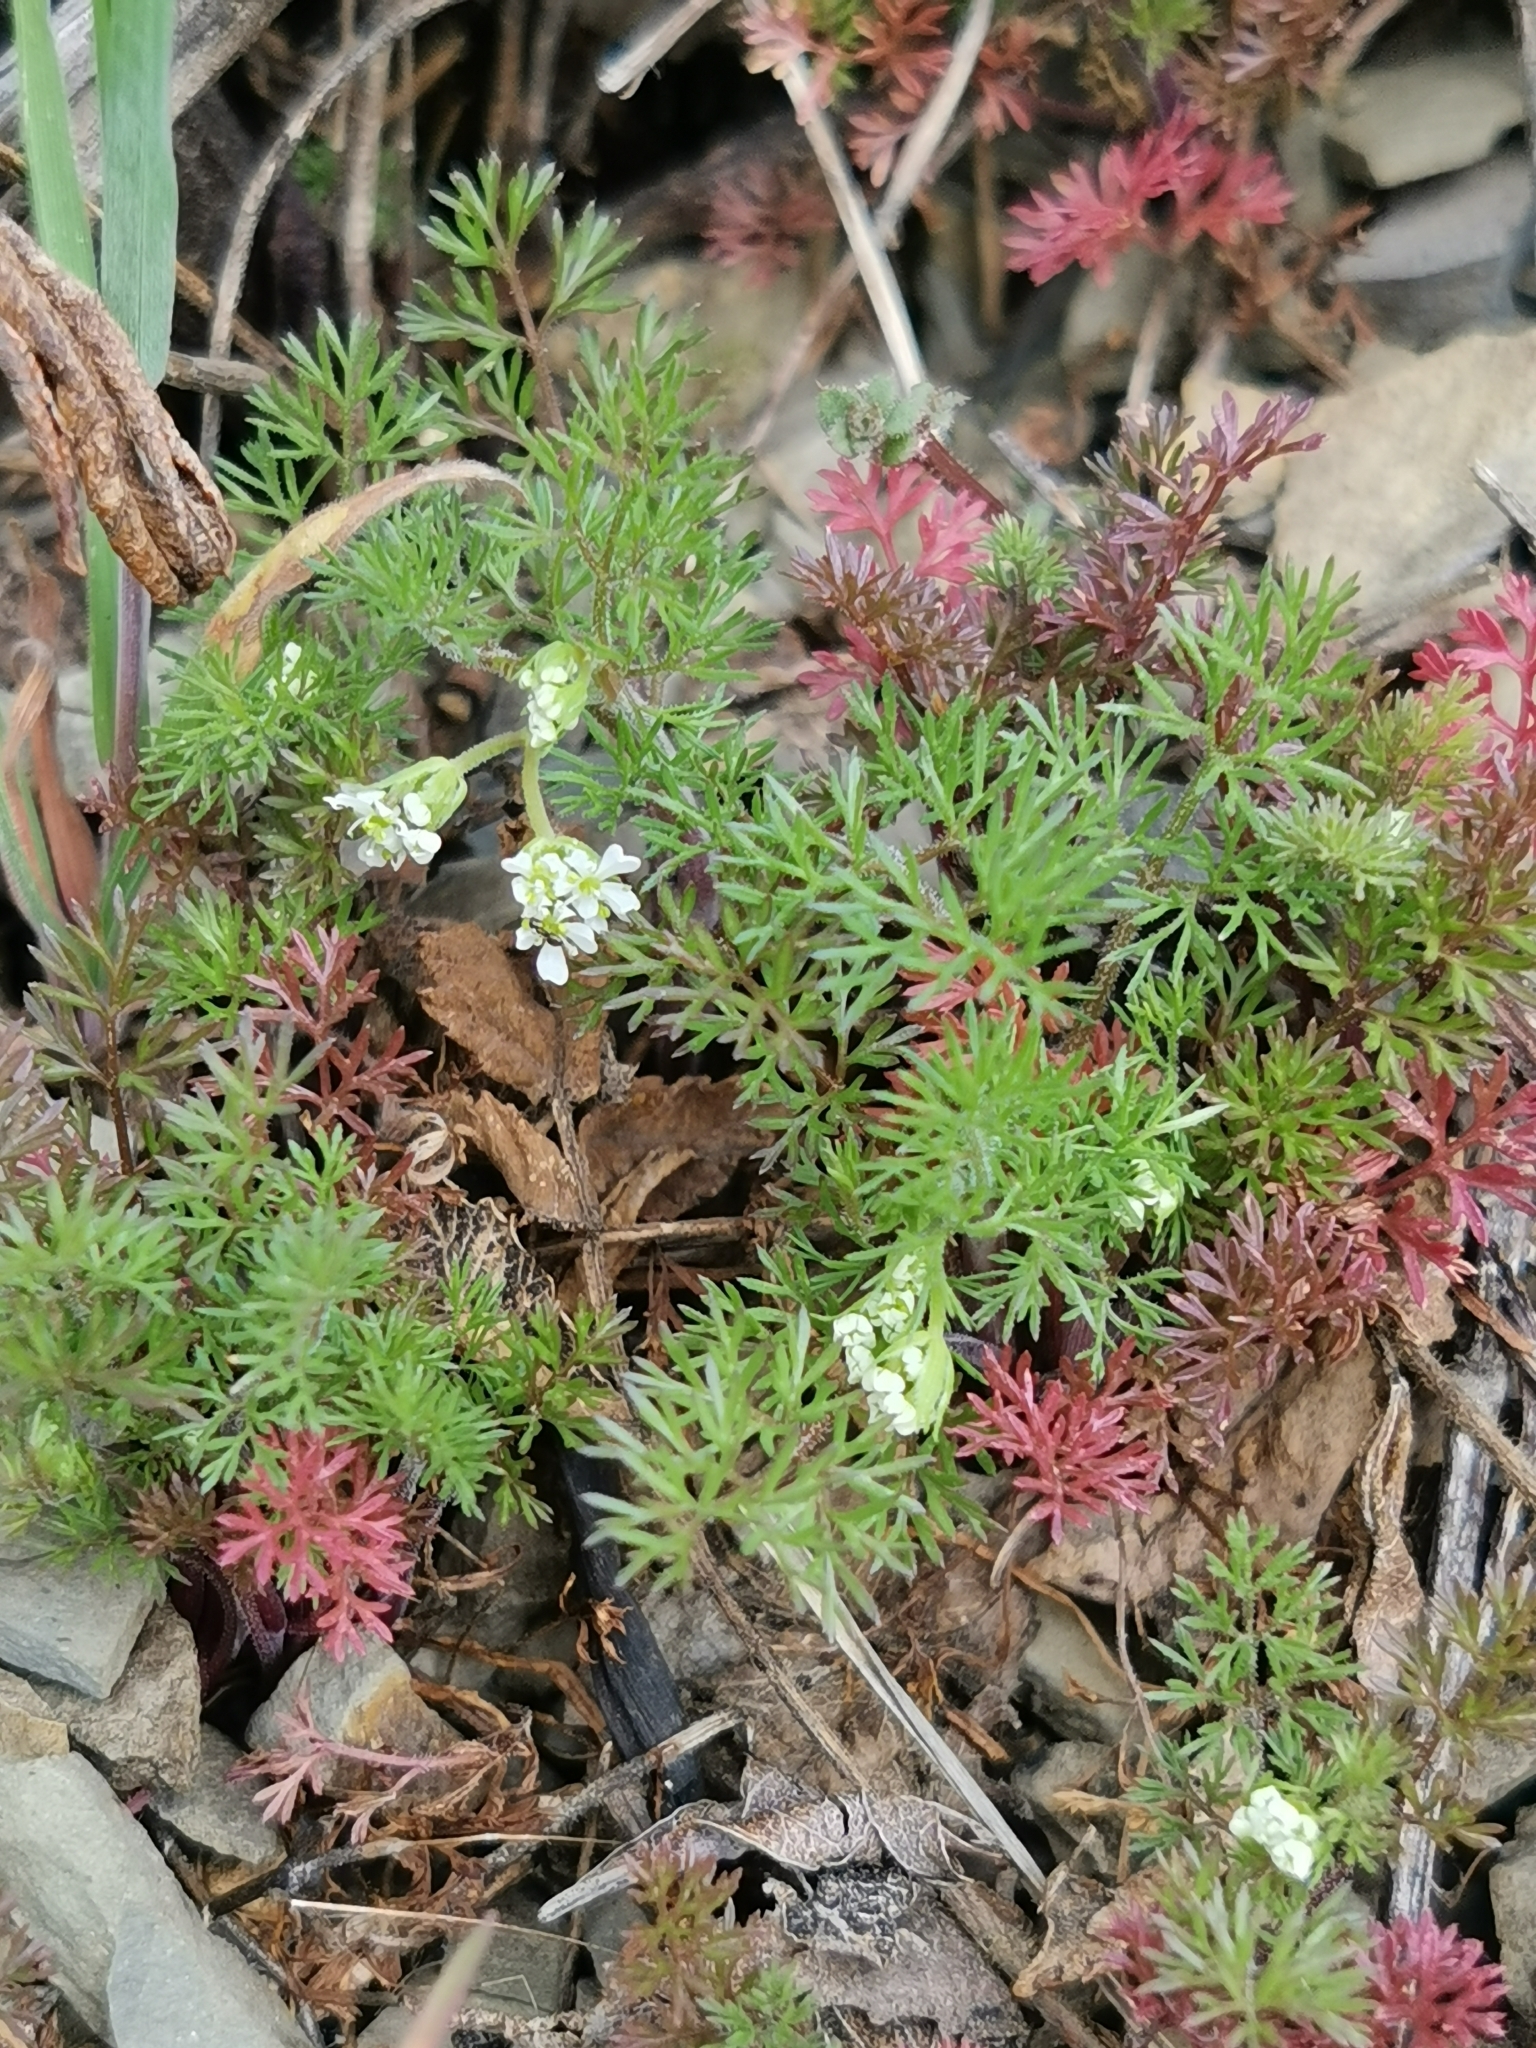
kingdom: Plantae
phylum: Tracheophyta
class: Magnoliopsida
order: Apiales
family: Apiaceae
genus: Scandix
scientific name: Scandix pecten-veneris
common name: Shepherd's-needle
